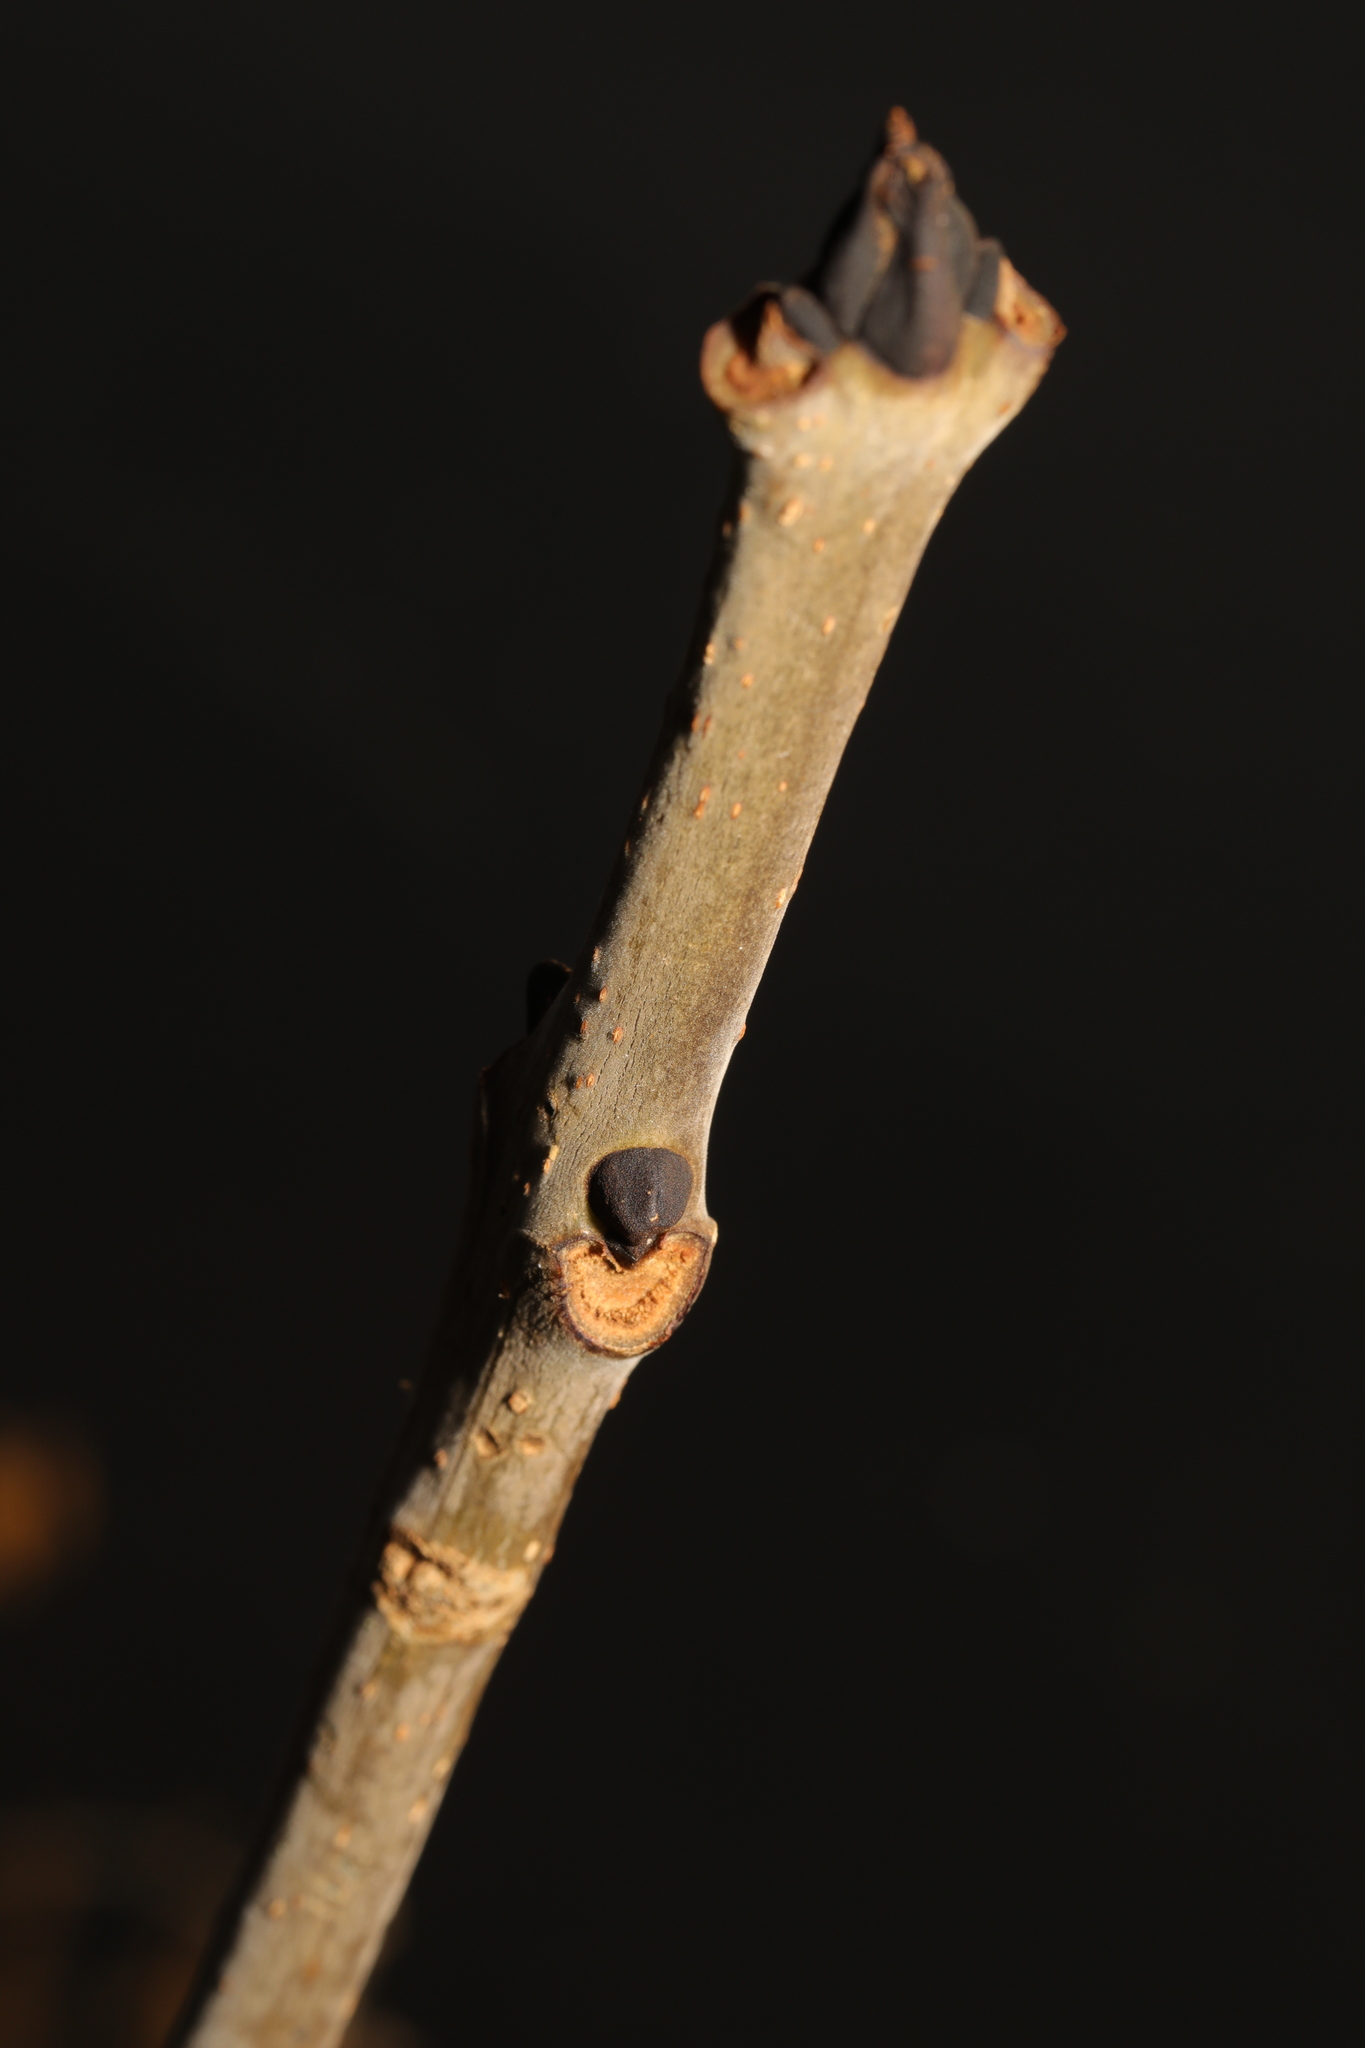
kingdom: Plantae
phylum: Tracheophyta
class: Magnoliopsida
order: Lamiales
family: Oleaceae
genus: Fraxinus
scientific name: Fraxinus excelsior
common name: European ash
